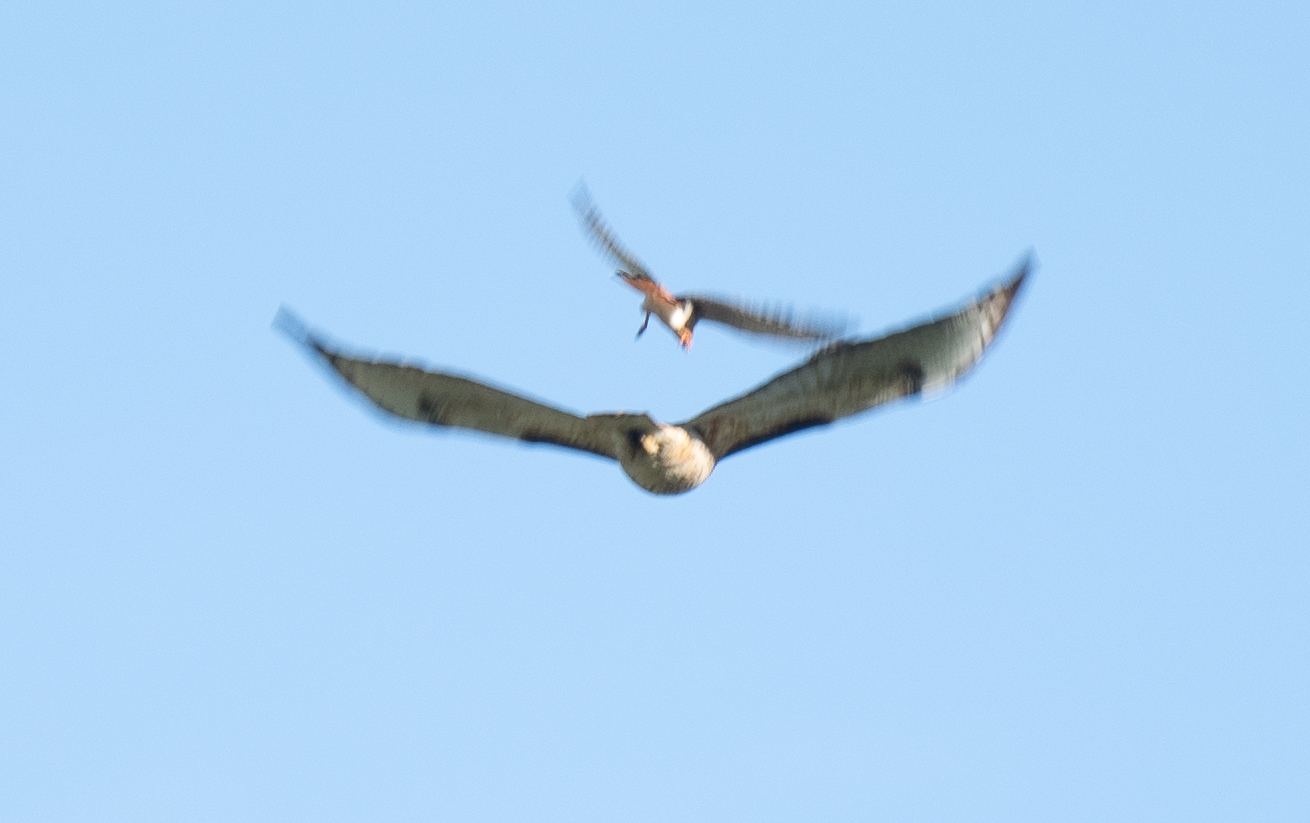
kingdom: Animalia
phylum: Chordata
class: Aves
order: Accipitriformes
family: Accipitridae
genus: Buteo
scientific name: Buteo jamaicensis
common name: Red-tailed hawk
